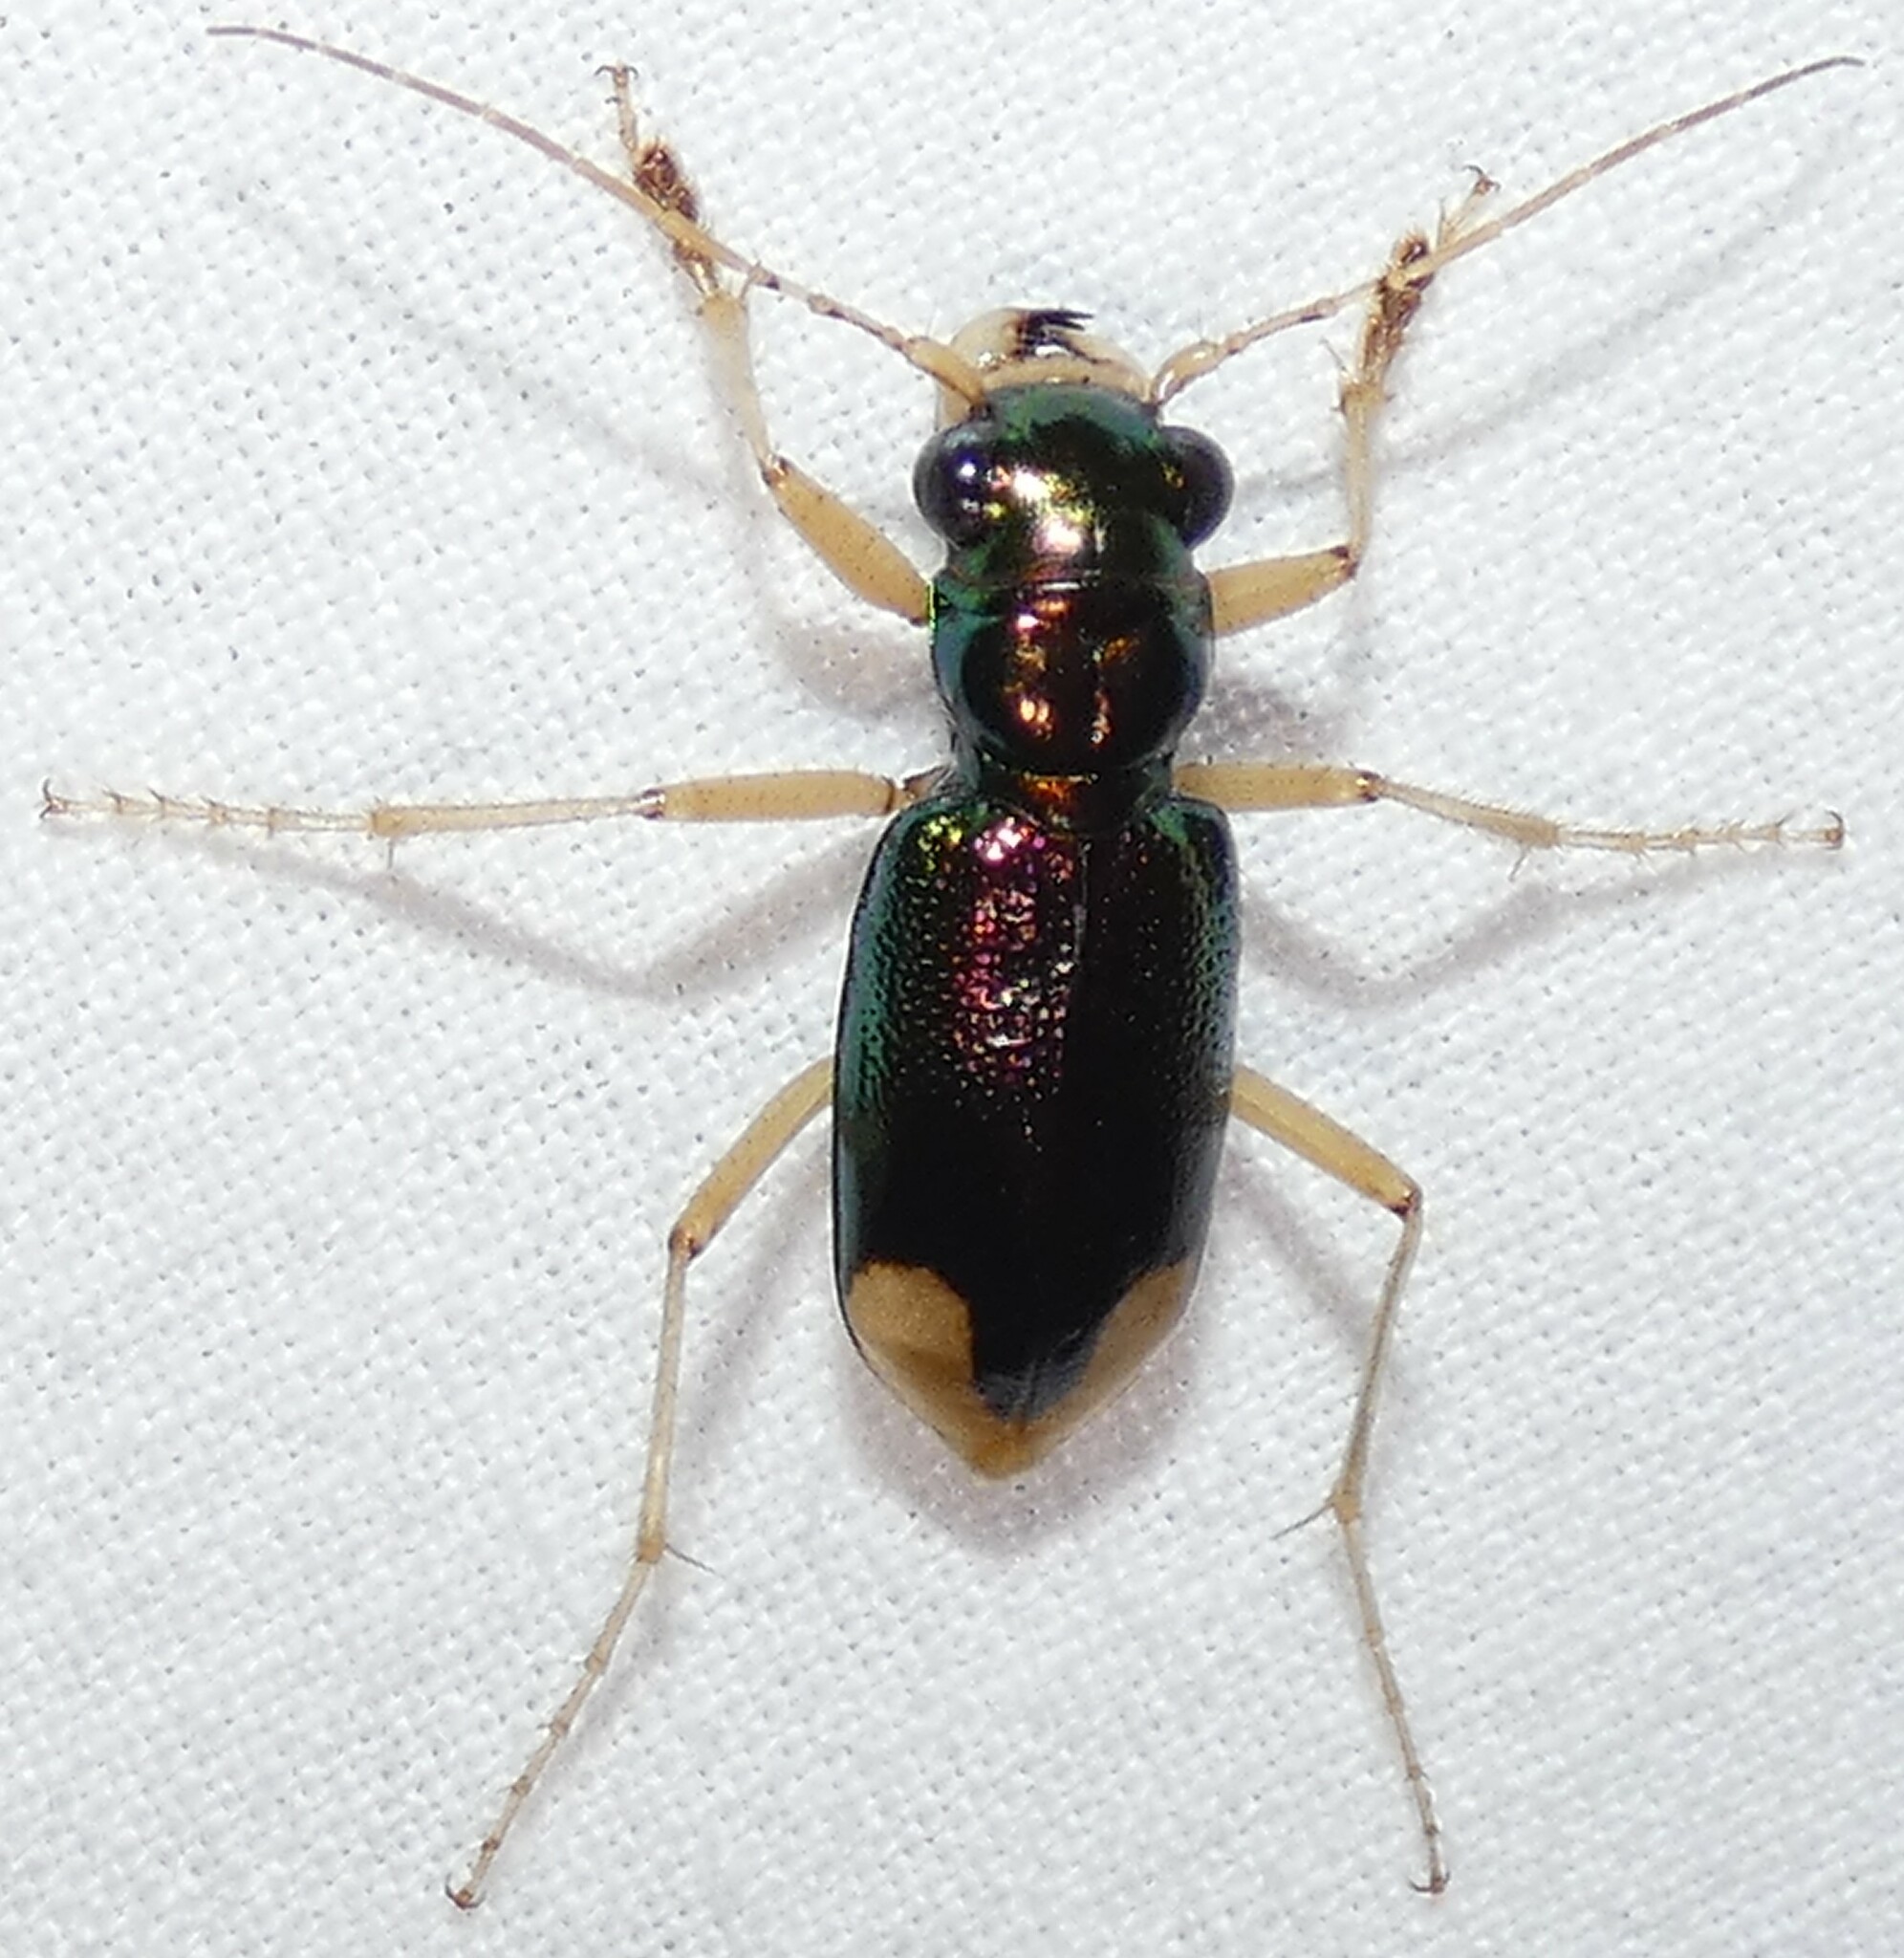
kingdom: Animalia
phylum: Arthropoda
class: Insecta
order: Coleoptera
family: Carabidae
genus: Tetracha
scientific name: Tetracha carolina
